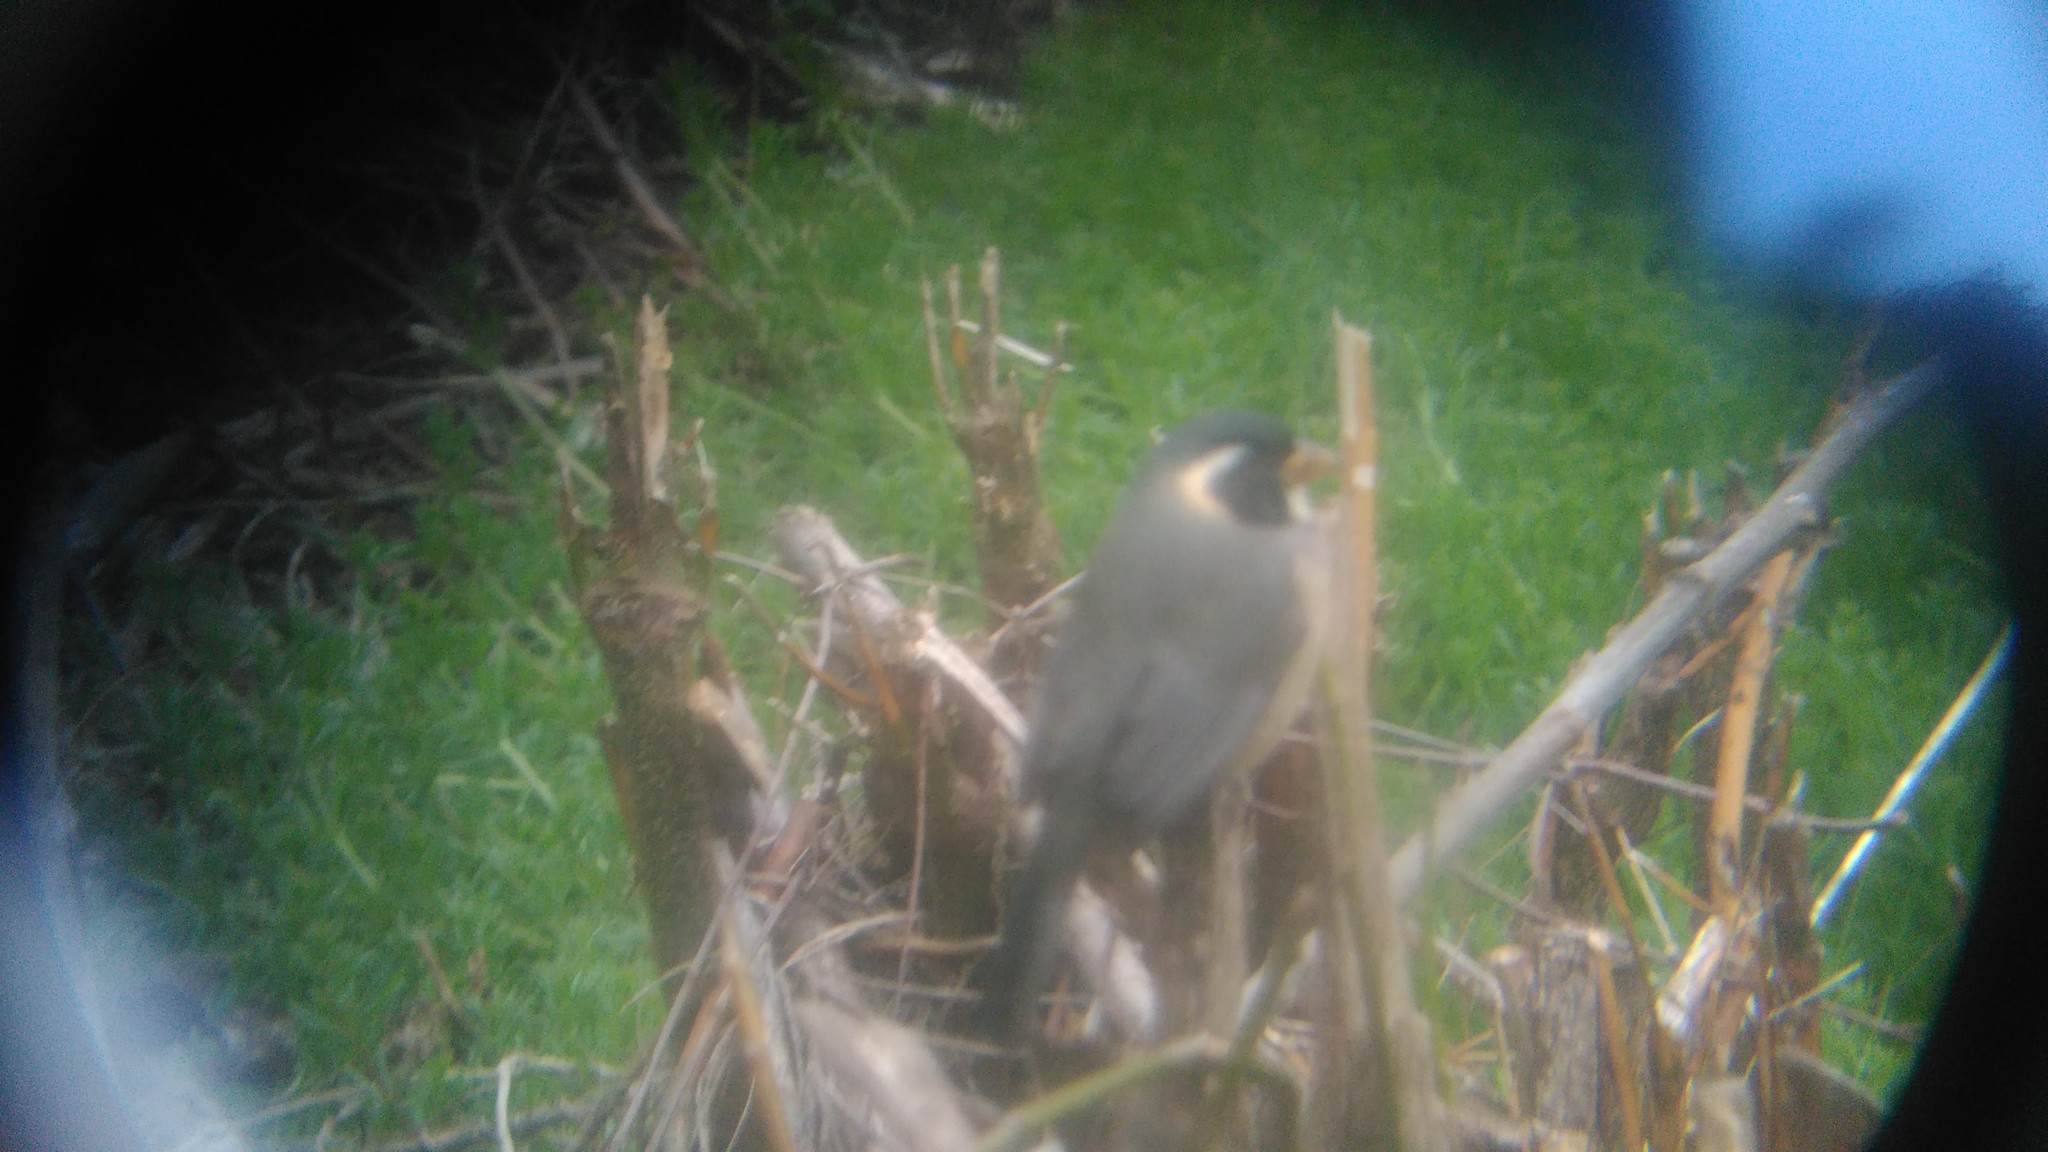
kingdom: Animalia
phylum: Chordata
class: Aves
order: Passeriformes
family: Thraupidae
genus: Saltator
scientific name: Saltator aurantiirostris
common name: Golden-billed saltator
